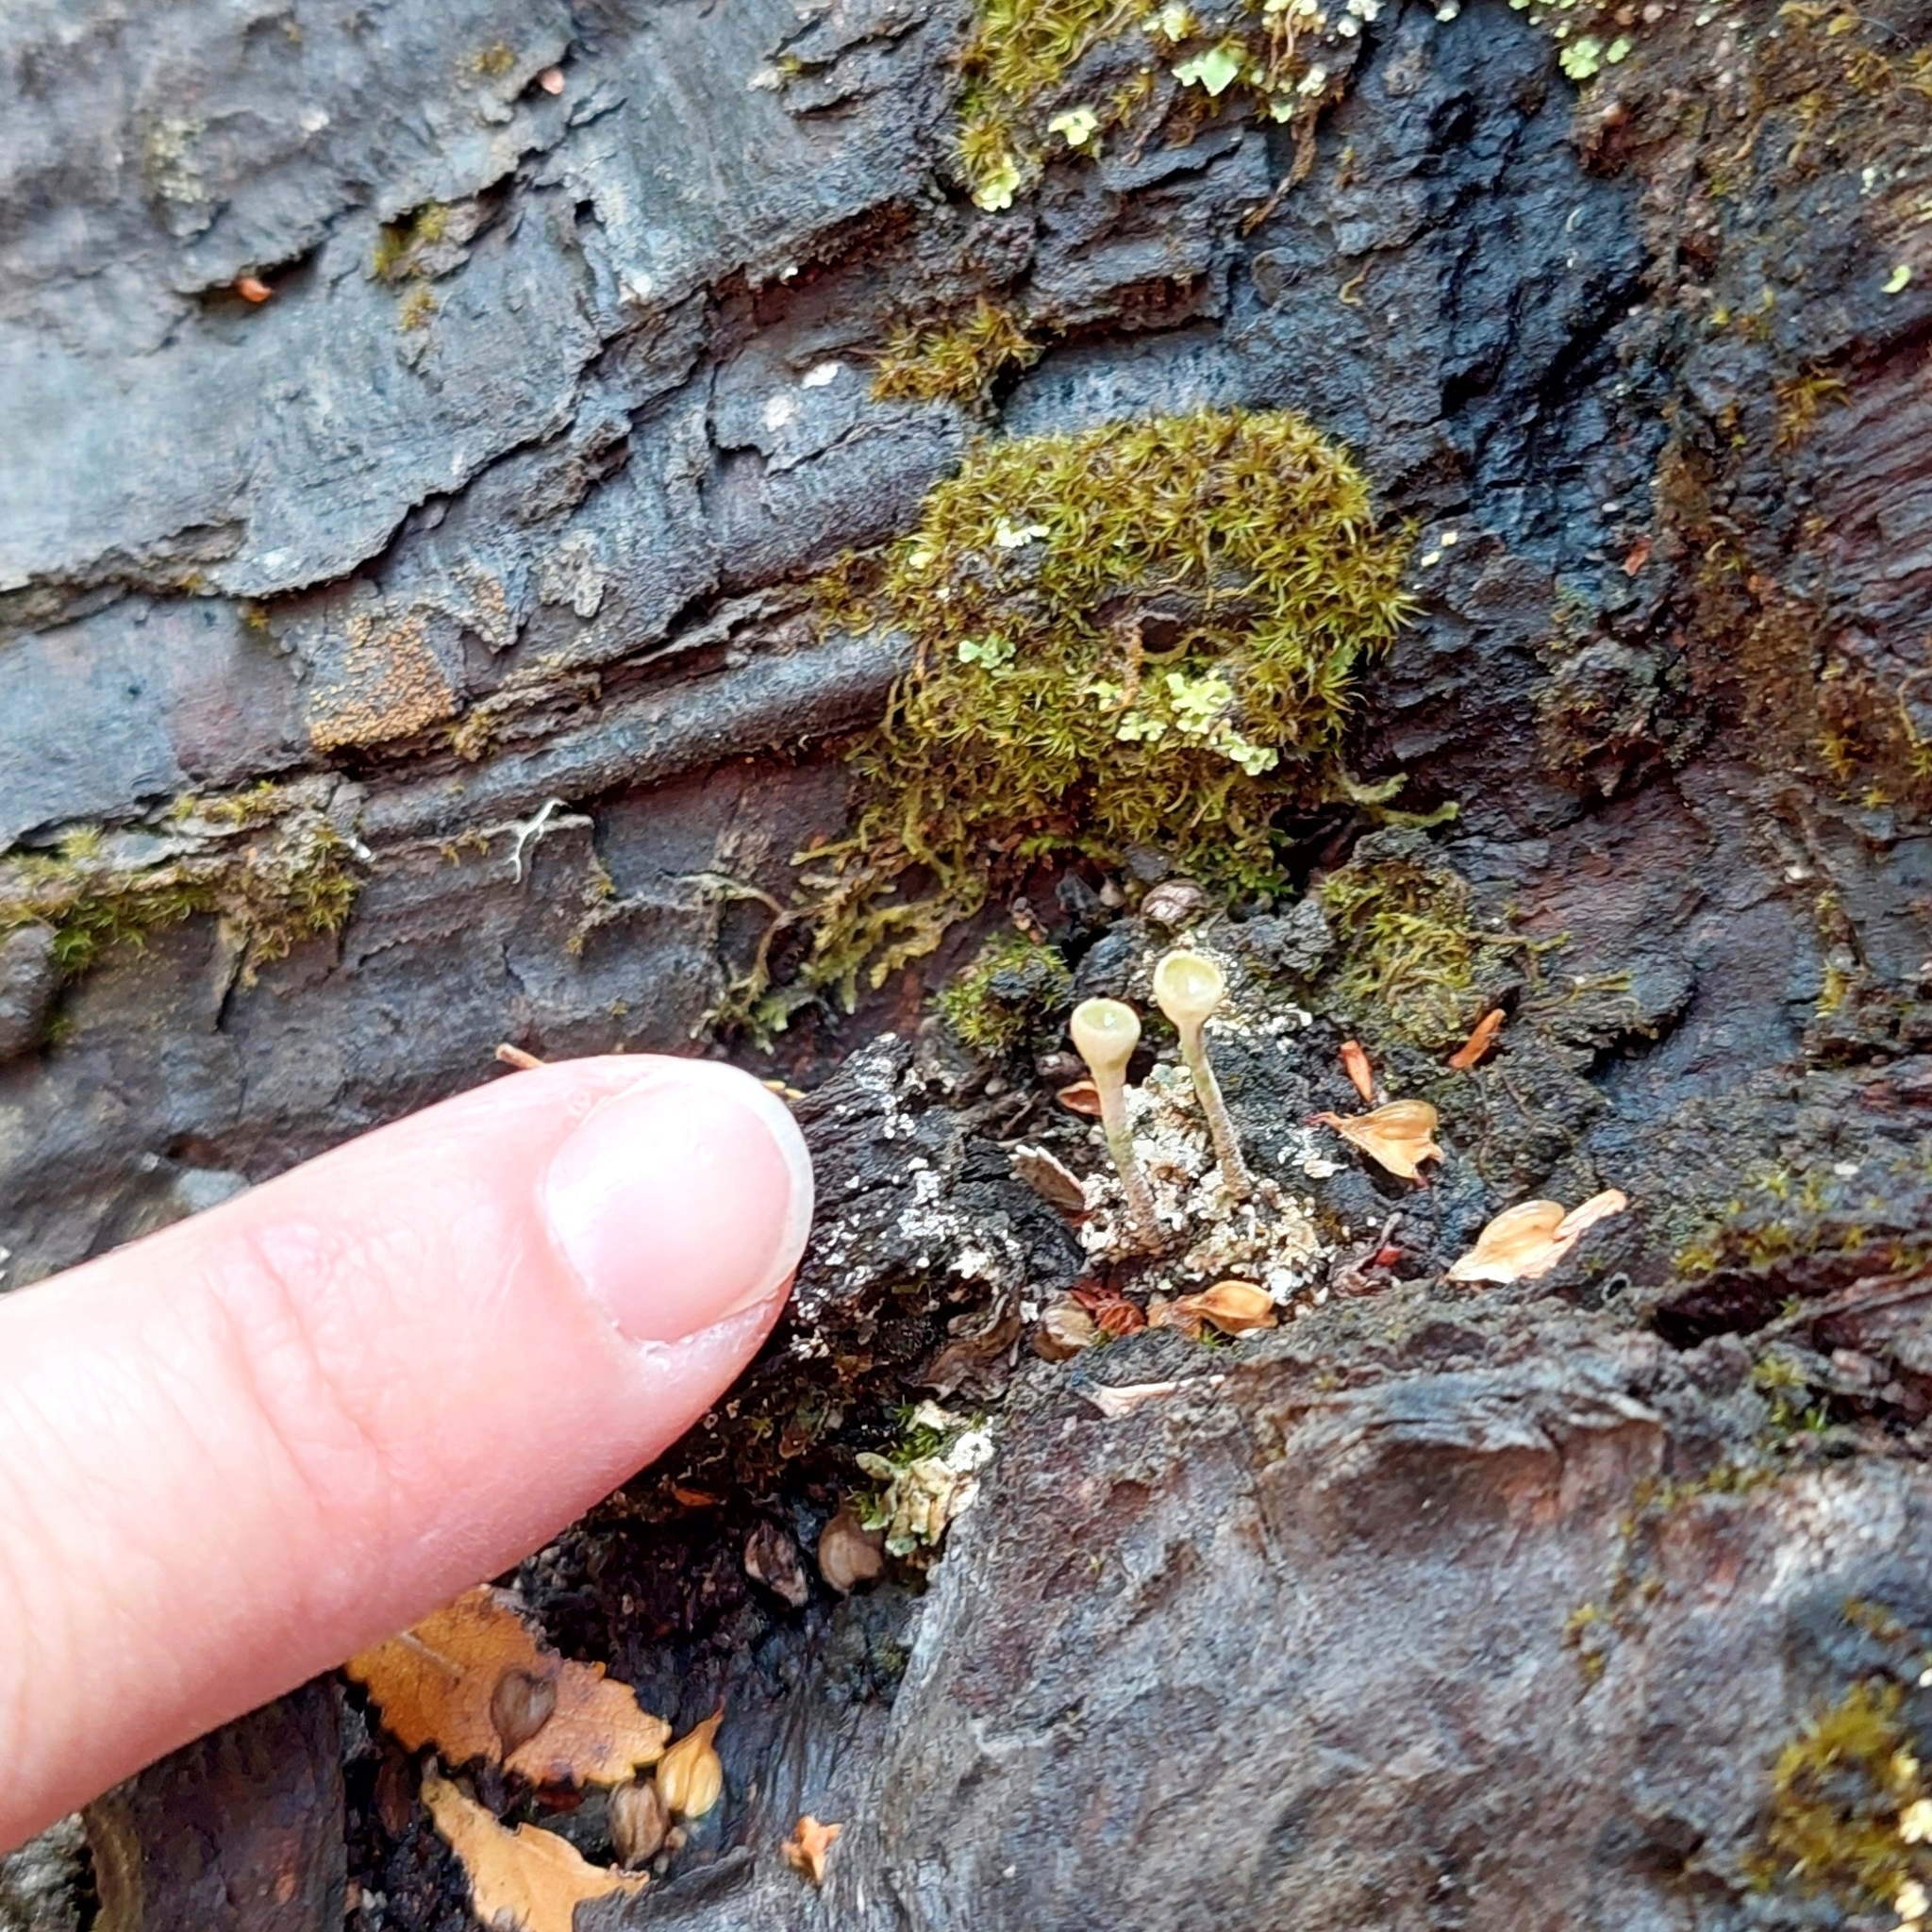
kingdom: Fungi
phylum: Ascomycota
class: Lecanoromycetes
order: Lecanorales
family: Cladoniaceae
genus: Cladonia
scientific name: Cladonia fimbriata
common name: Powdered trumpet lichen
